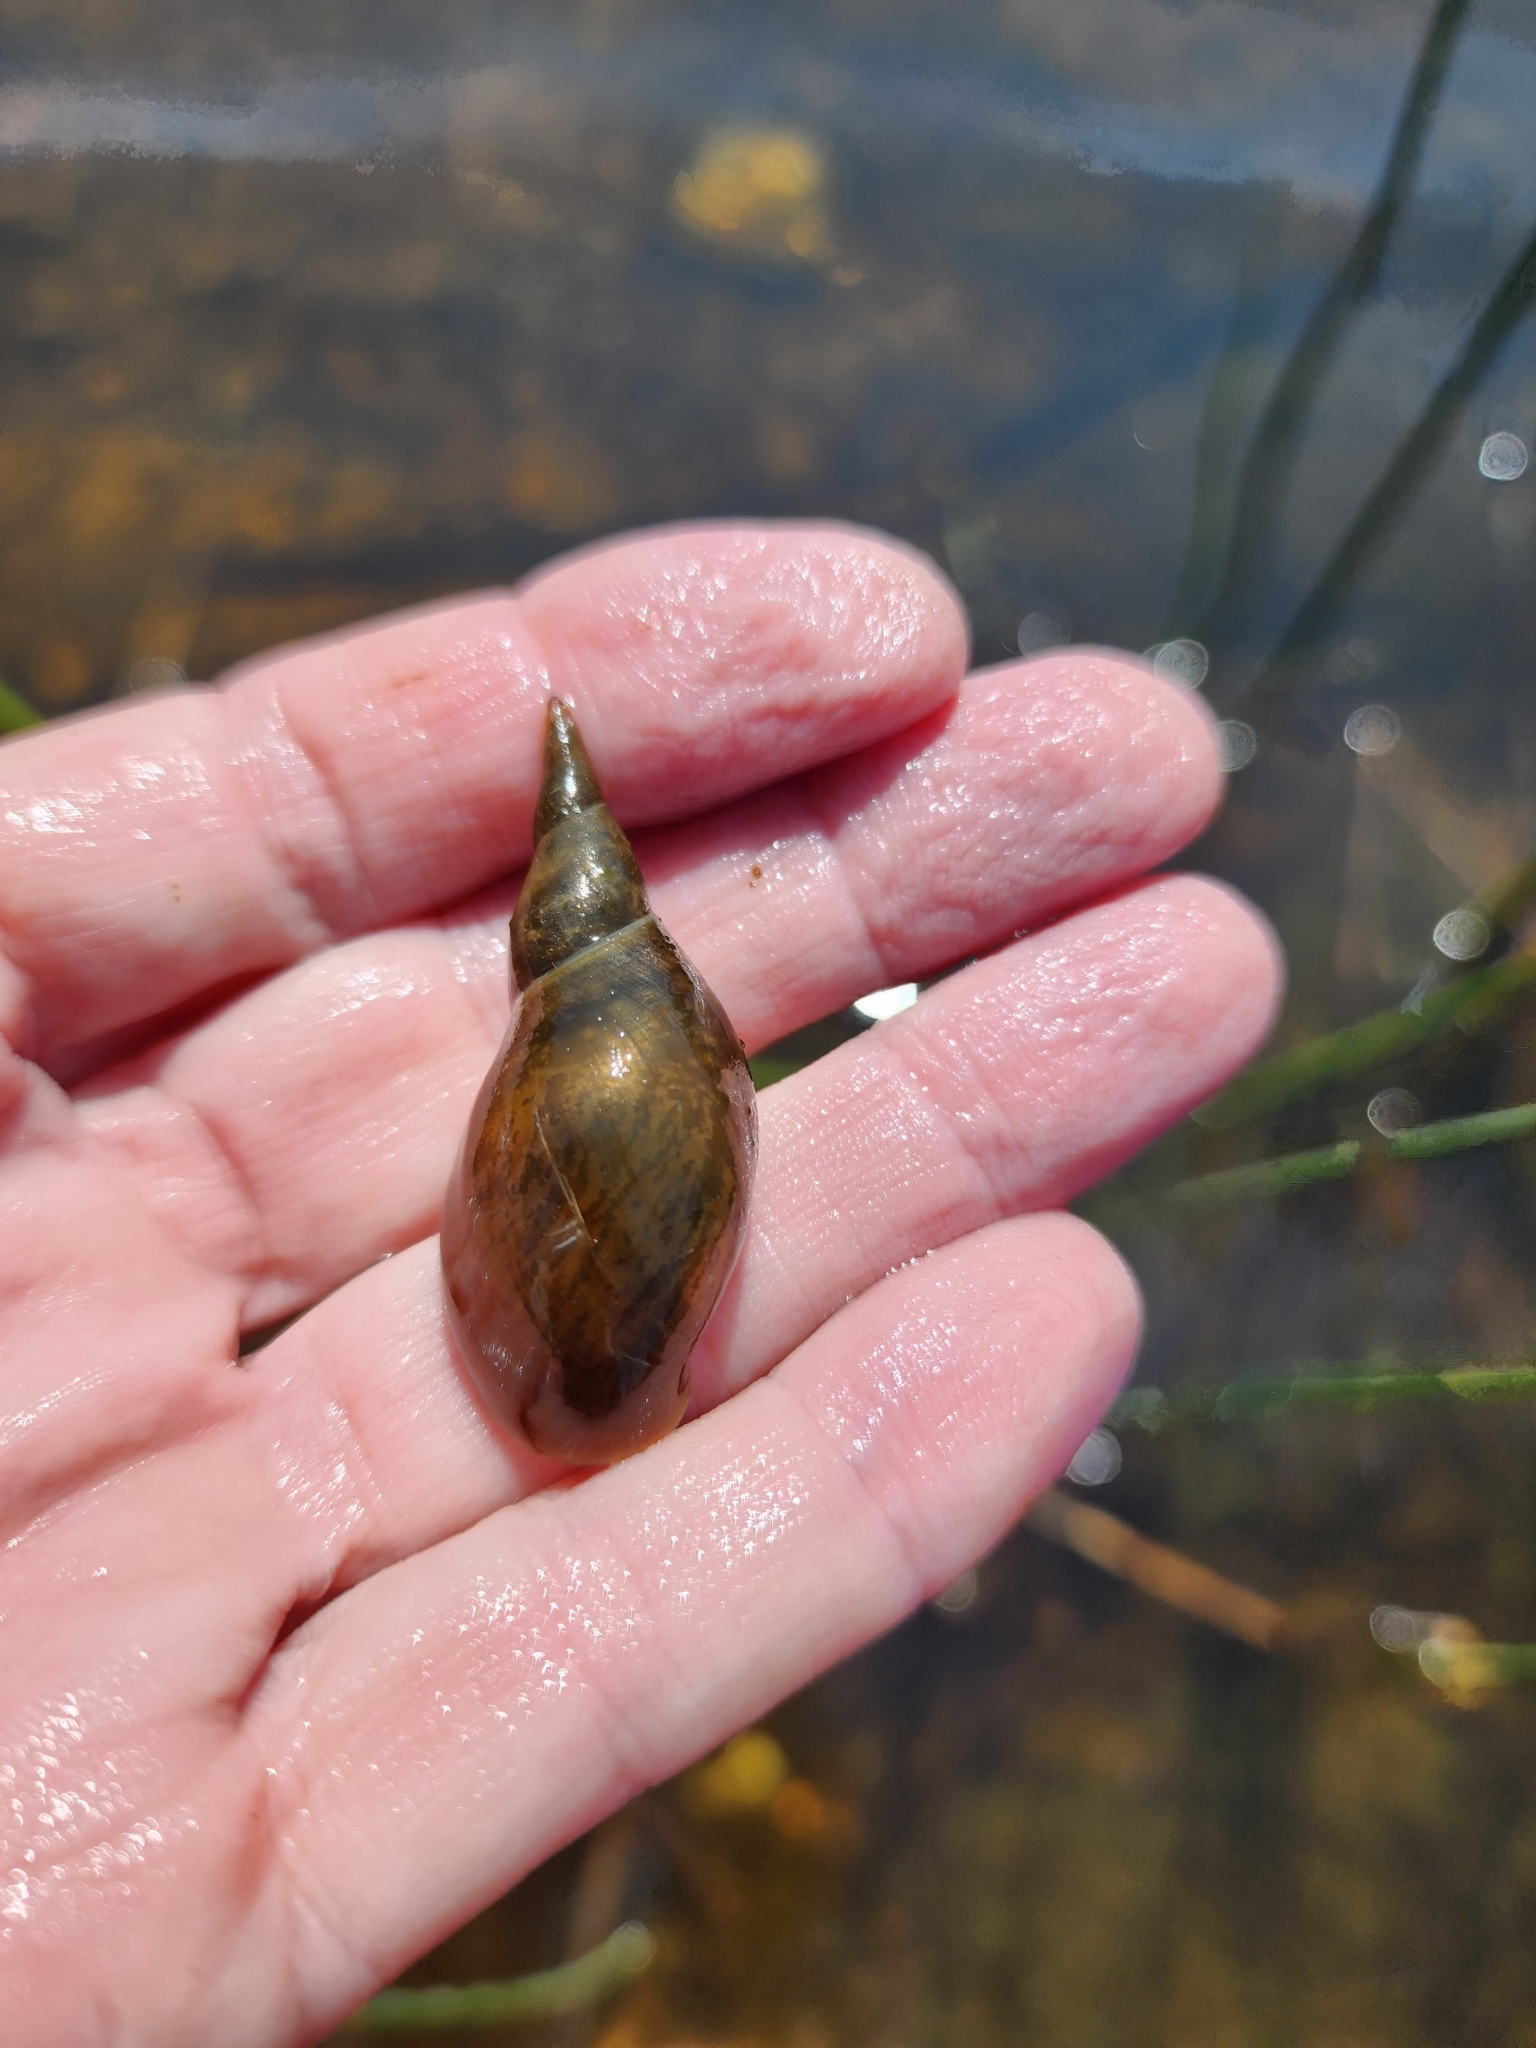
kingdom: Animalia
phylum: Mollusca
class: Gastropoda
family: Lymnaeidae
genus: Lymnaea
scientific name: Lymnaea stagnalis
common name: Great pond snail
